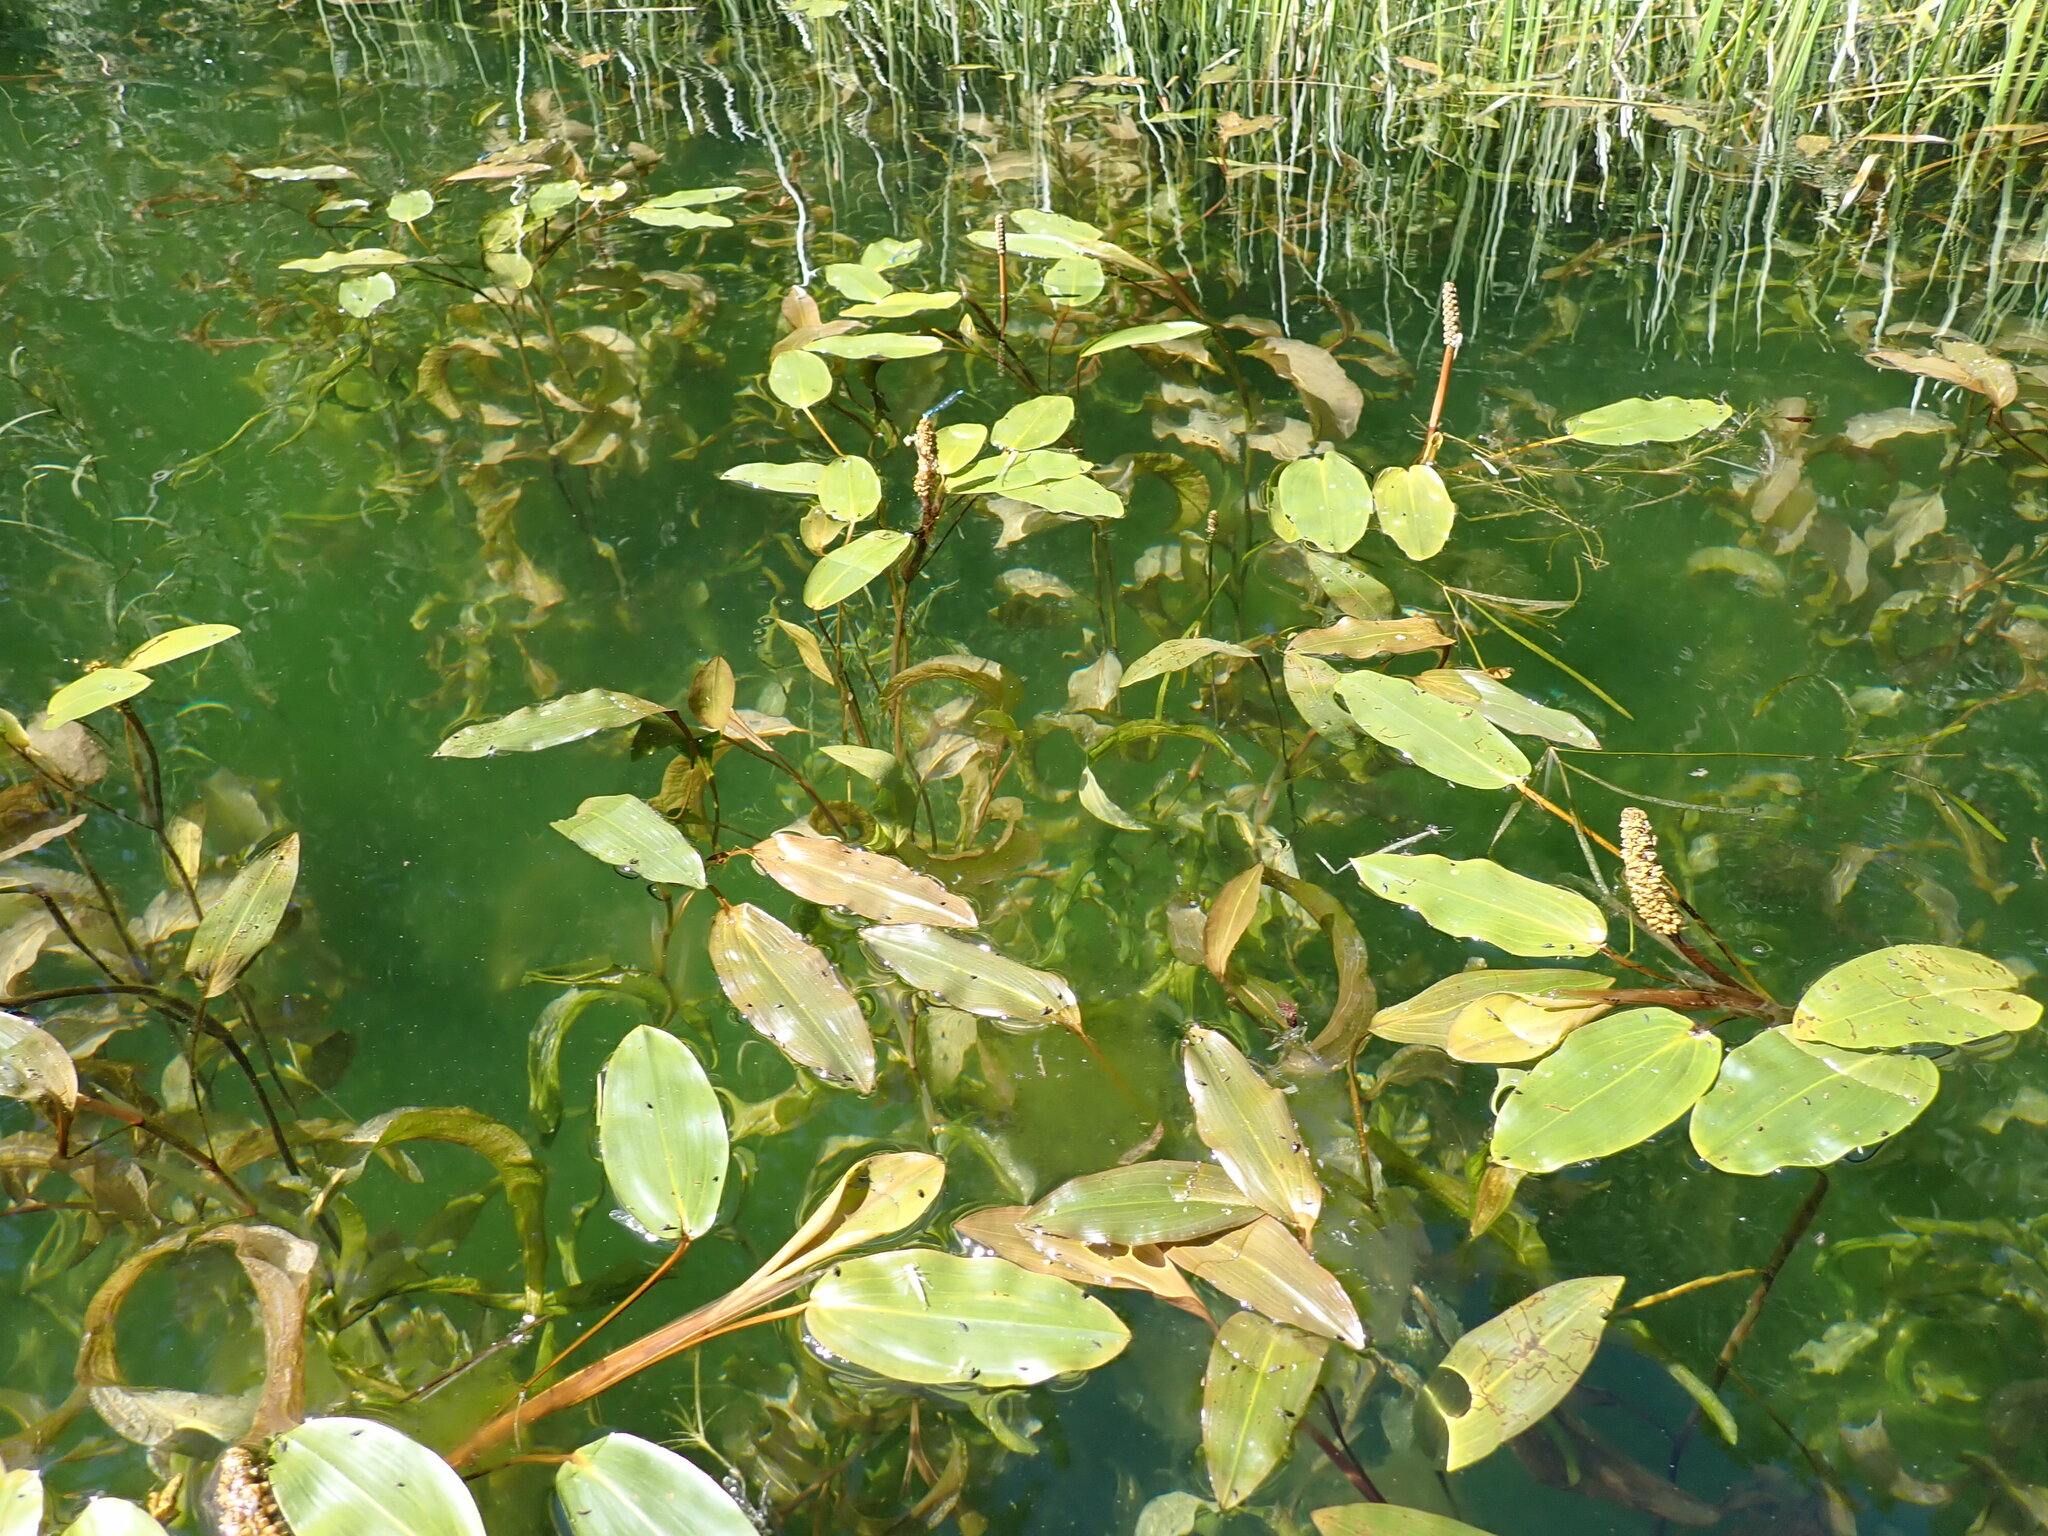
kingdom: Plantae
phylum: Tracheophyta
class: Liliopsida
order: Alismatales
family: Potamogetonaceae
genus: Potamogeton
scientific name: Potamogeton amplifolius
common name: Broad-leaved pondweed
